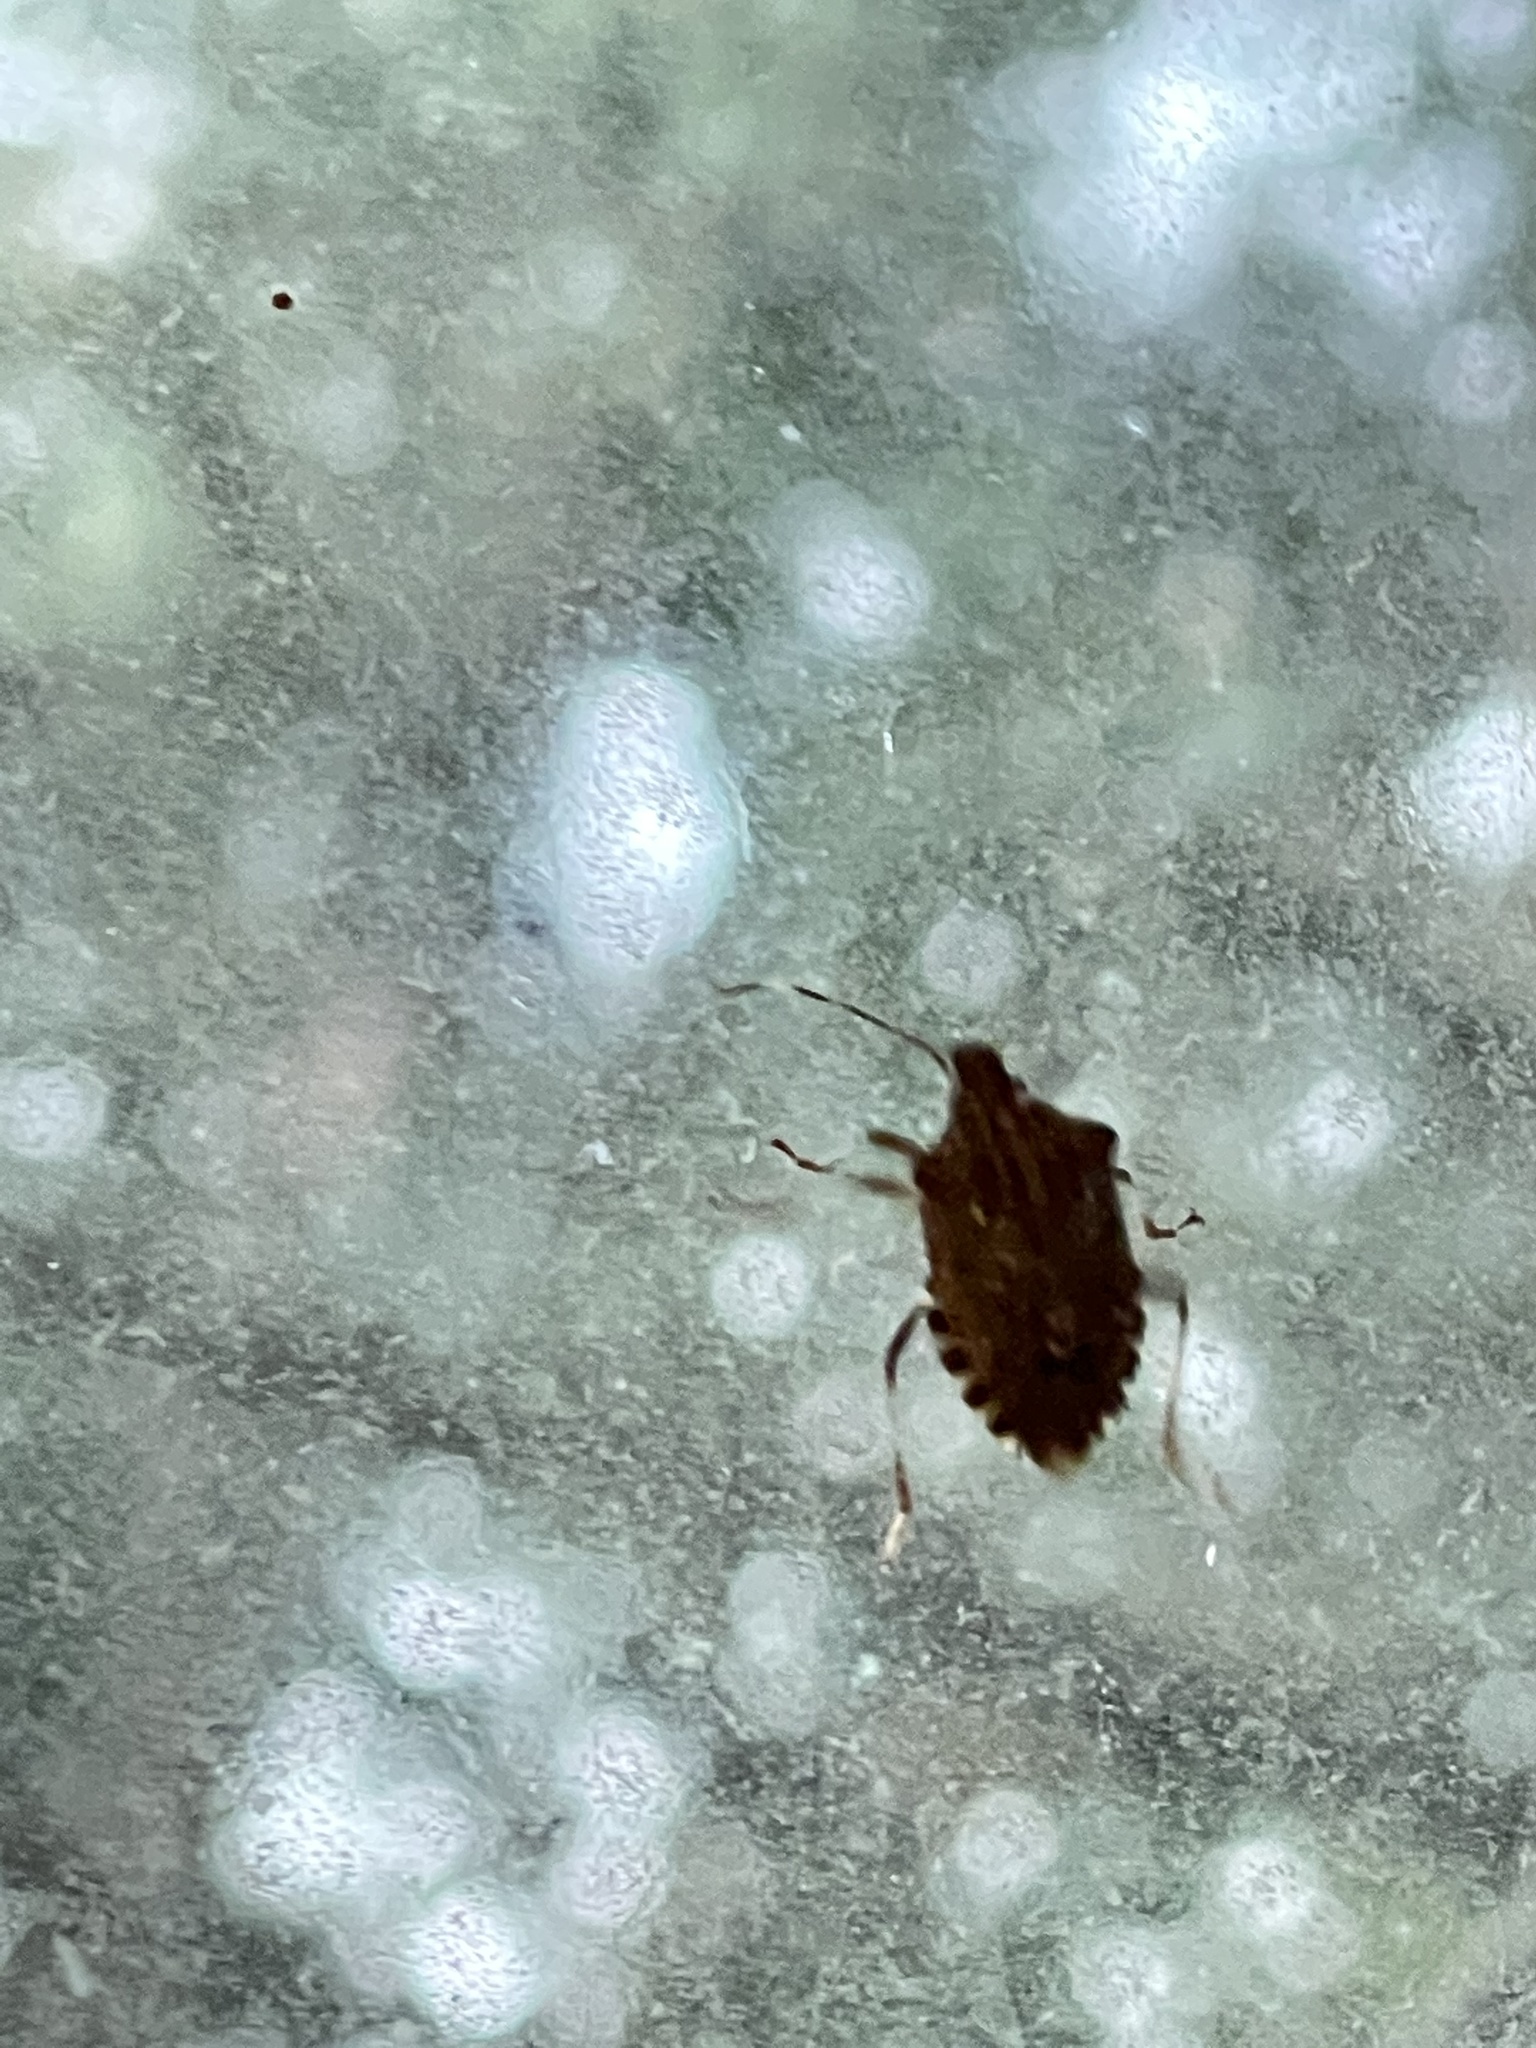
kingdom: Animalia
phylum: Arthropoda
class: Insecta
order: Hemiptera
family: Pentatomidae
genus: Halyomorpha
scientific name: Halyomorpha halys
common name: Brown marmorated stink bug
